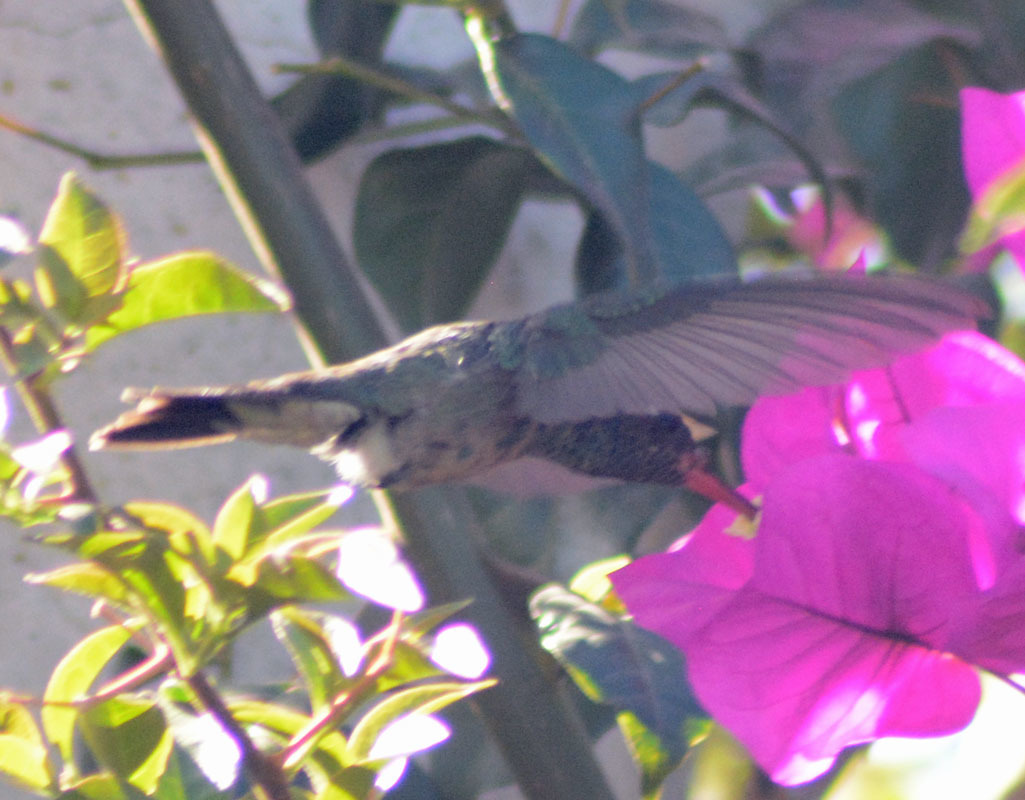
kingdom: Animalia
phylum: Chordata
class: Aves
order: Apodiformes
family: Trochilidae
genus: Cynanthus
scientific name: Cynanthus latirostris
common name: Broad-billed hummingbird
